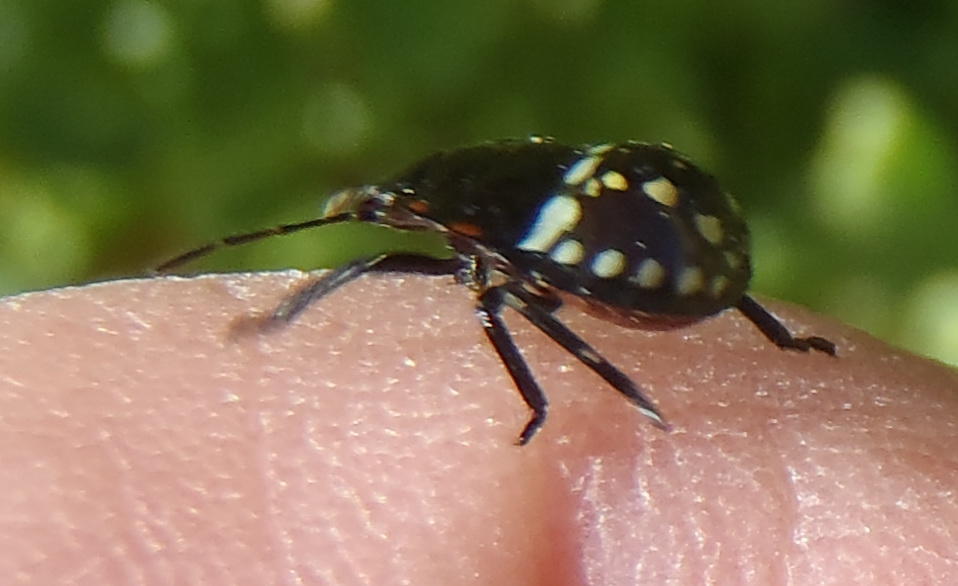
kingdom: Animalia
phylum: Arthropoda
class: Insecta
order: Hemiptera
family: Pentatomidae
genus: Nezara
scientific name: Nezara viridula
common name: Southern green stink bug
